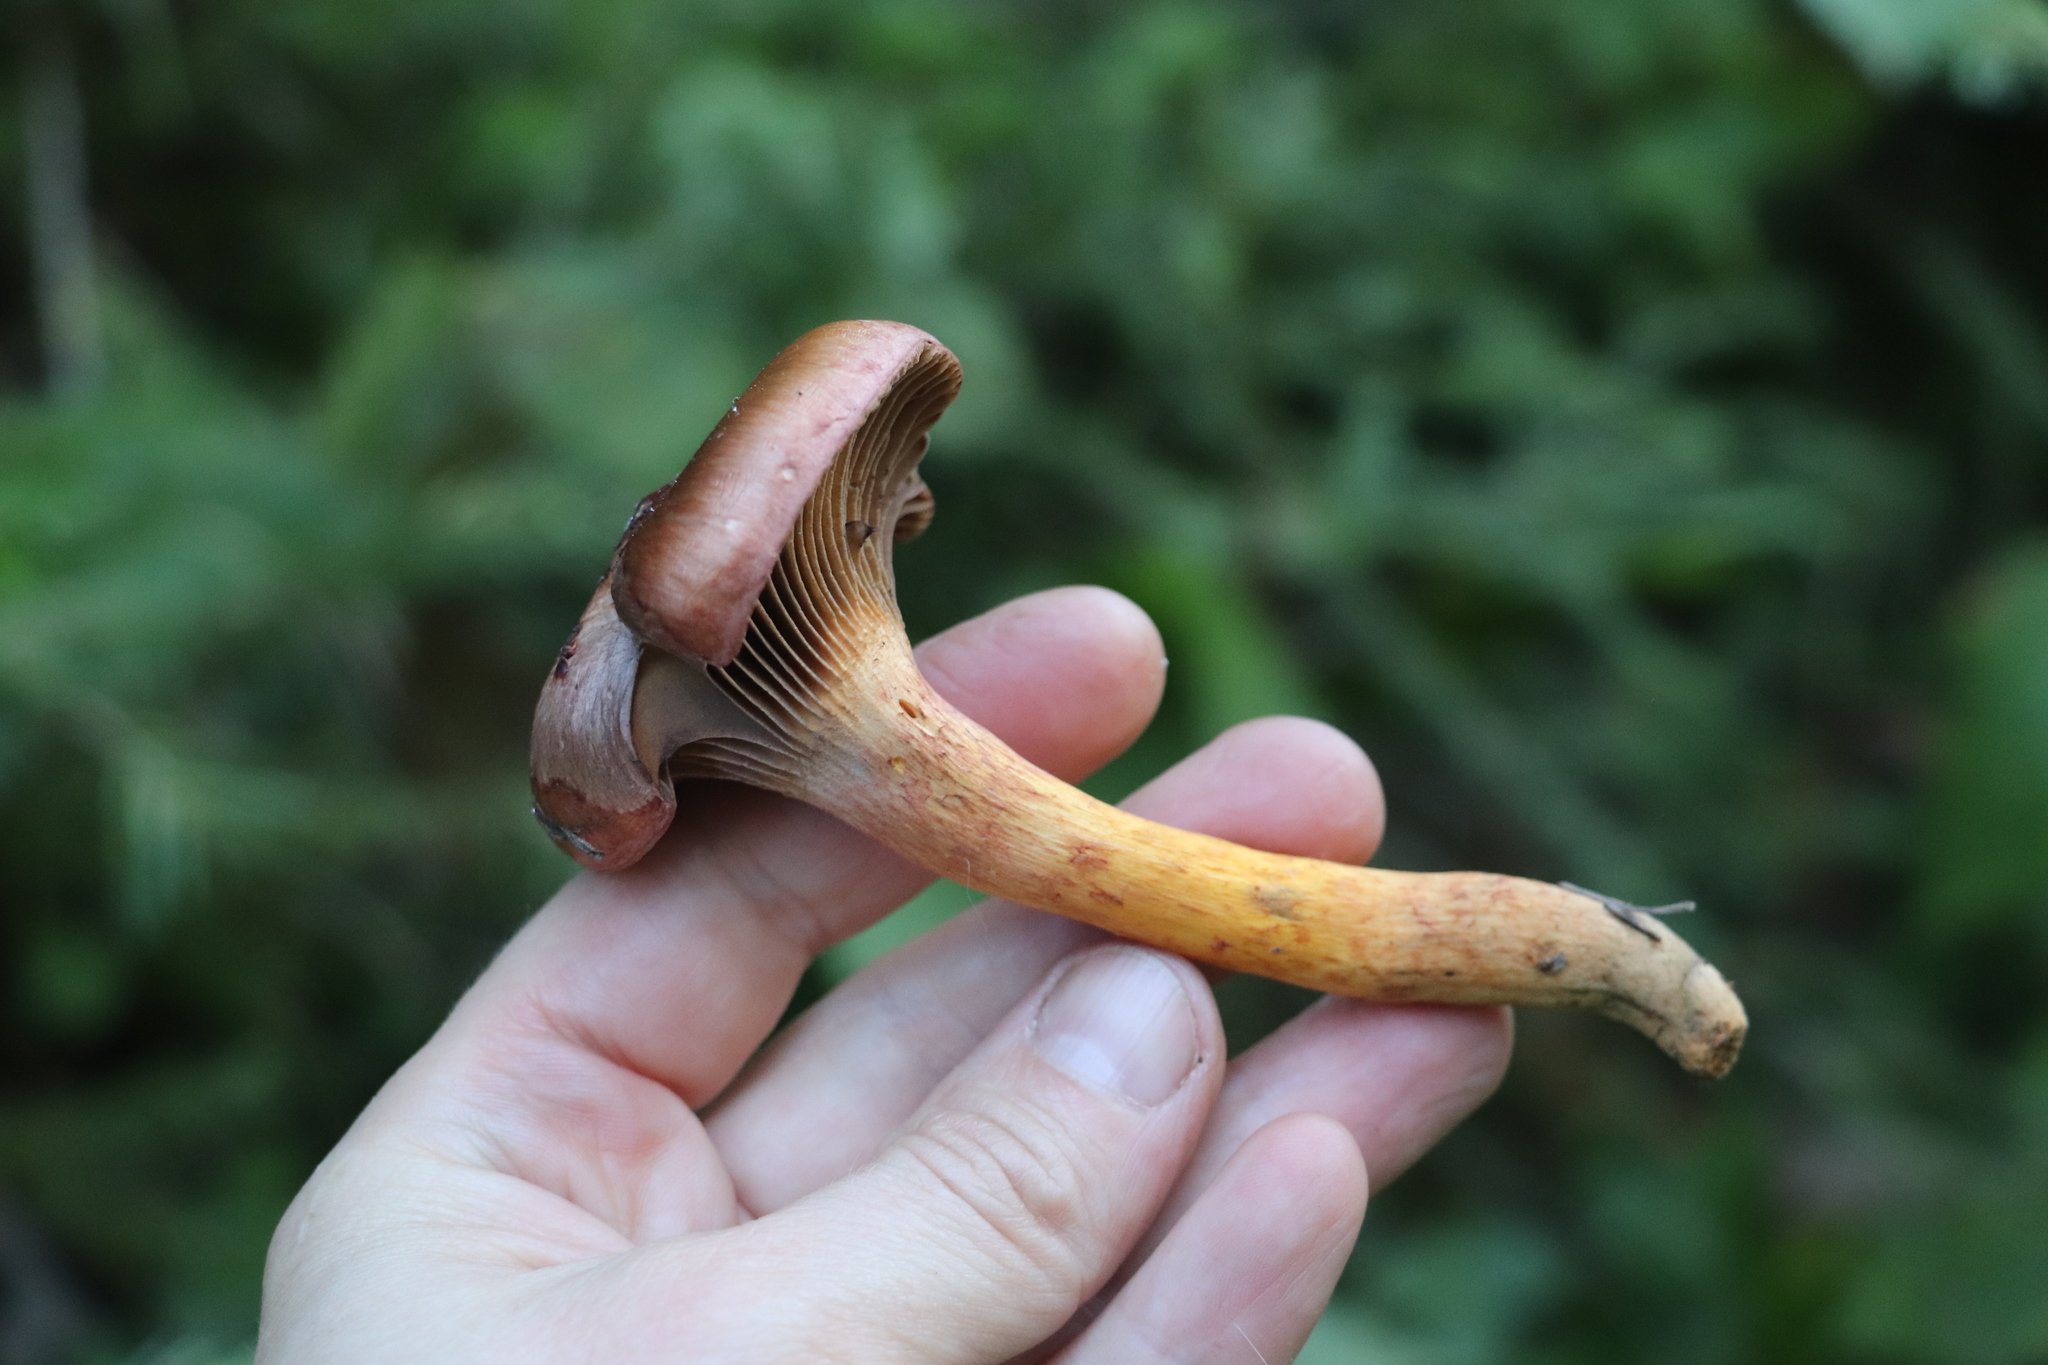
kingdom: Fungi
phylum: Basidiomycota
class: Agaricomycetes
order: Boletales
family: Gomphidiaceae
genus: Chroogomphus
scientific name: Chroogomphus rutilus
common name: Copper spike
